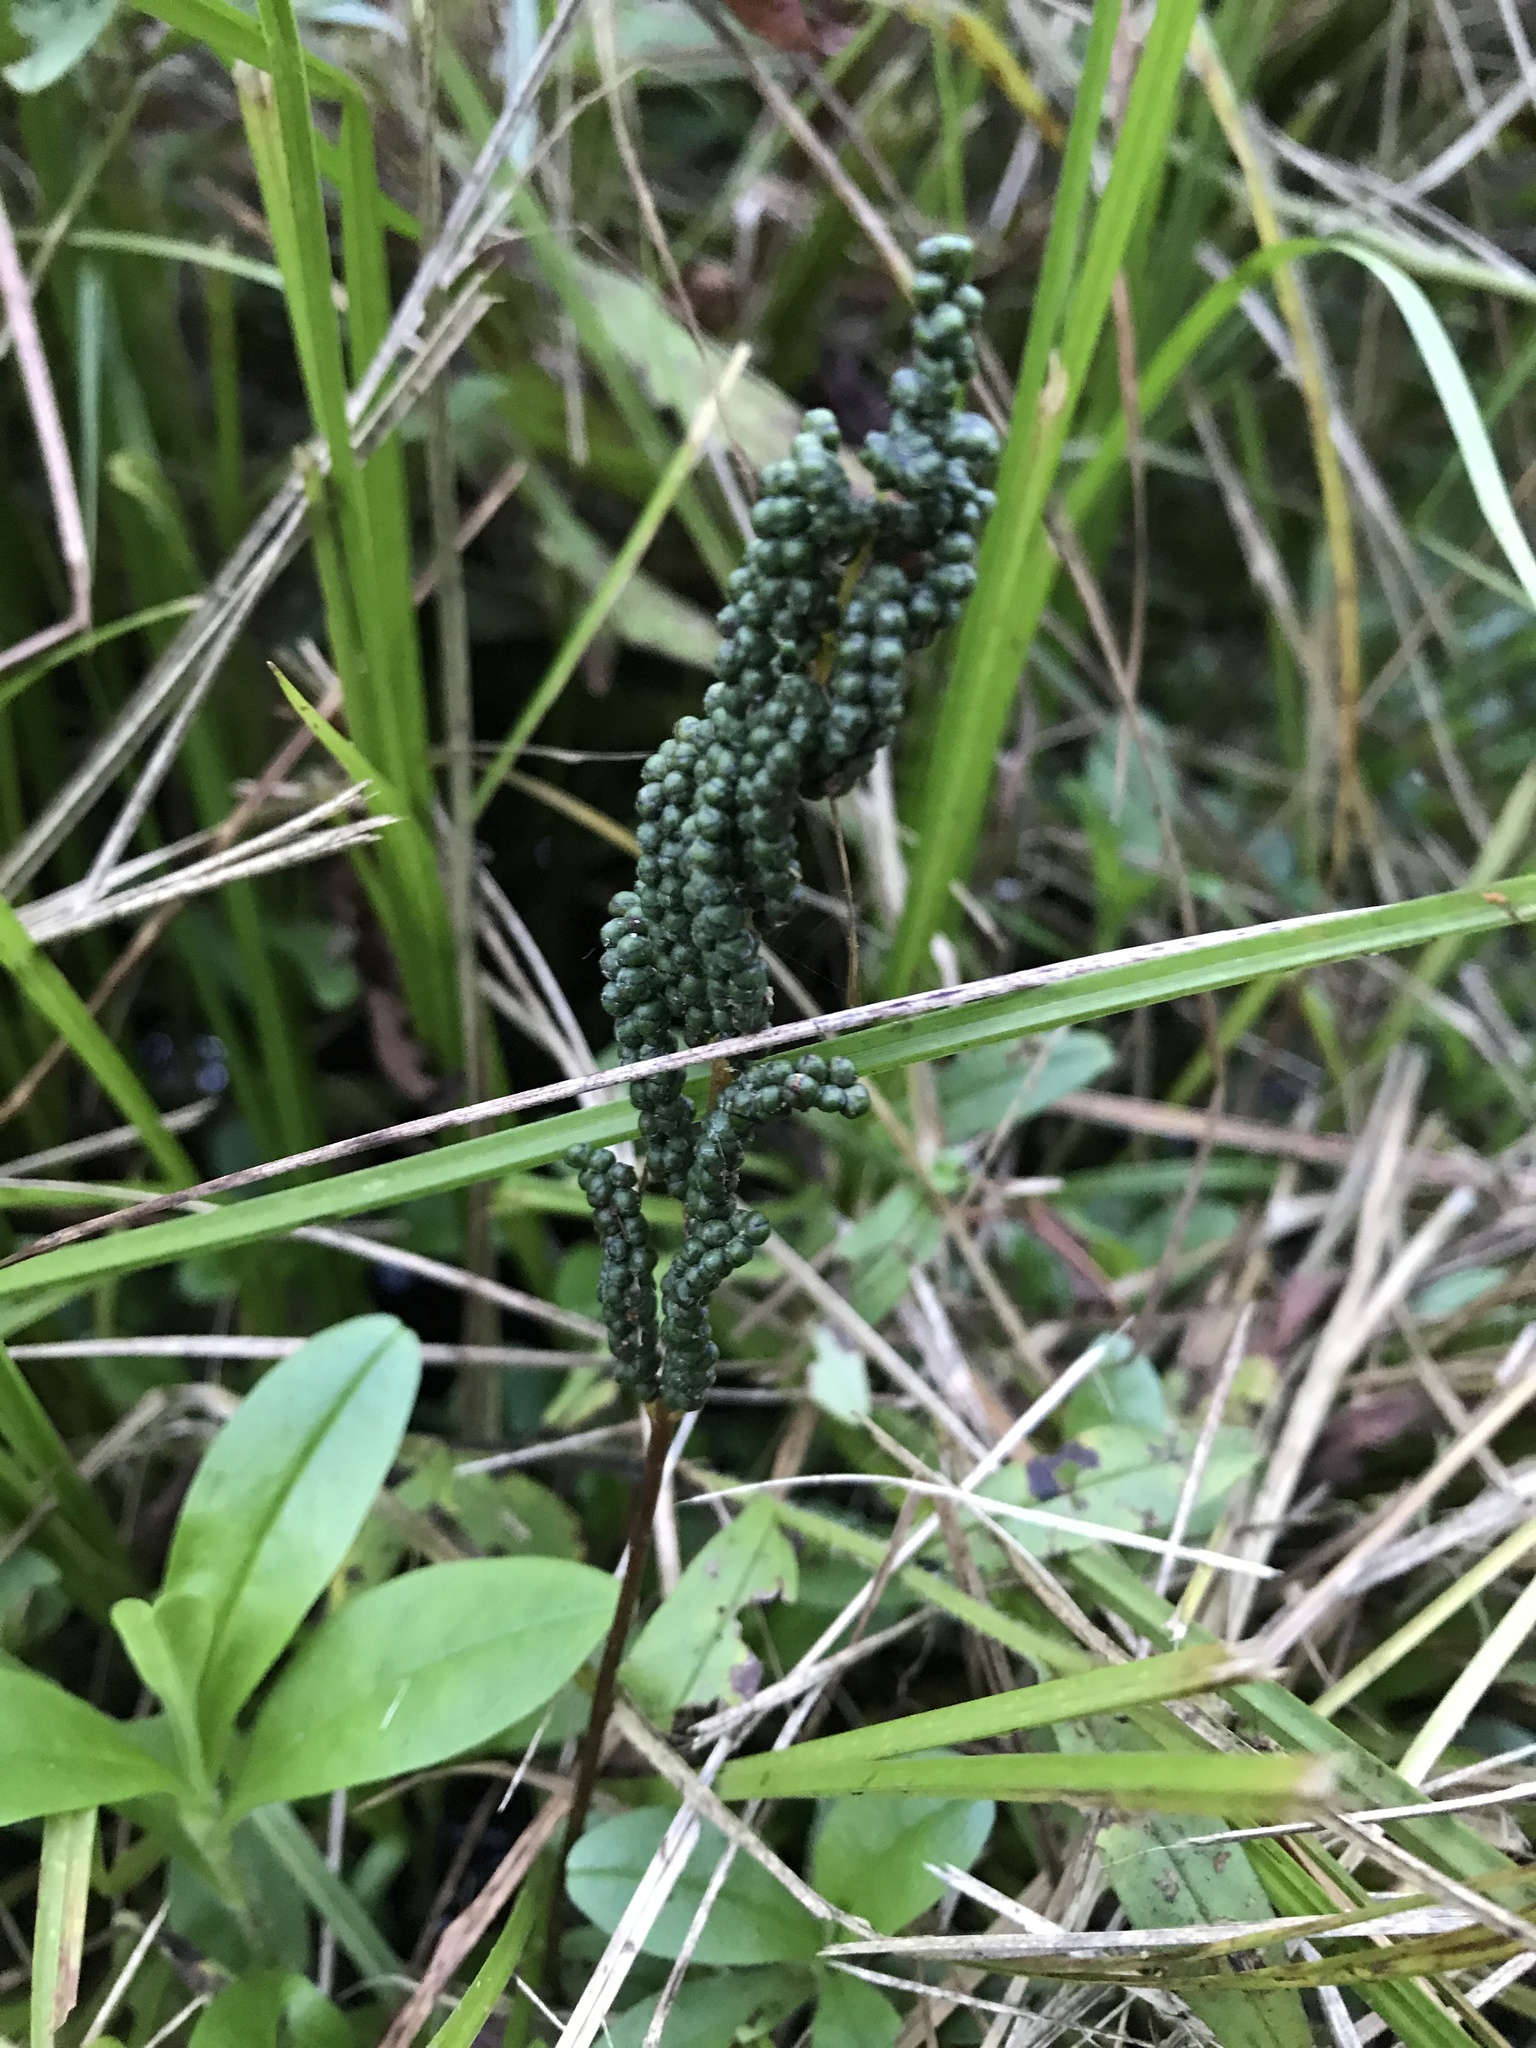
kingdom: Plantae
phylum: Tracheophyta
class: Polypodiopsida
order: Polypodiales
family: Onocleaceae
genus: Onoclea
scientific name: Onoclea sensibilis
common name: Sensitive fern
